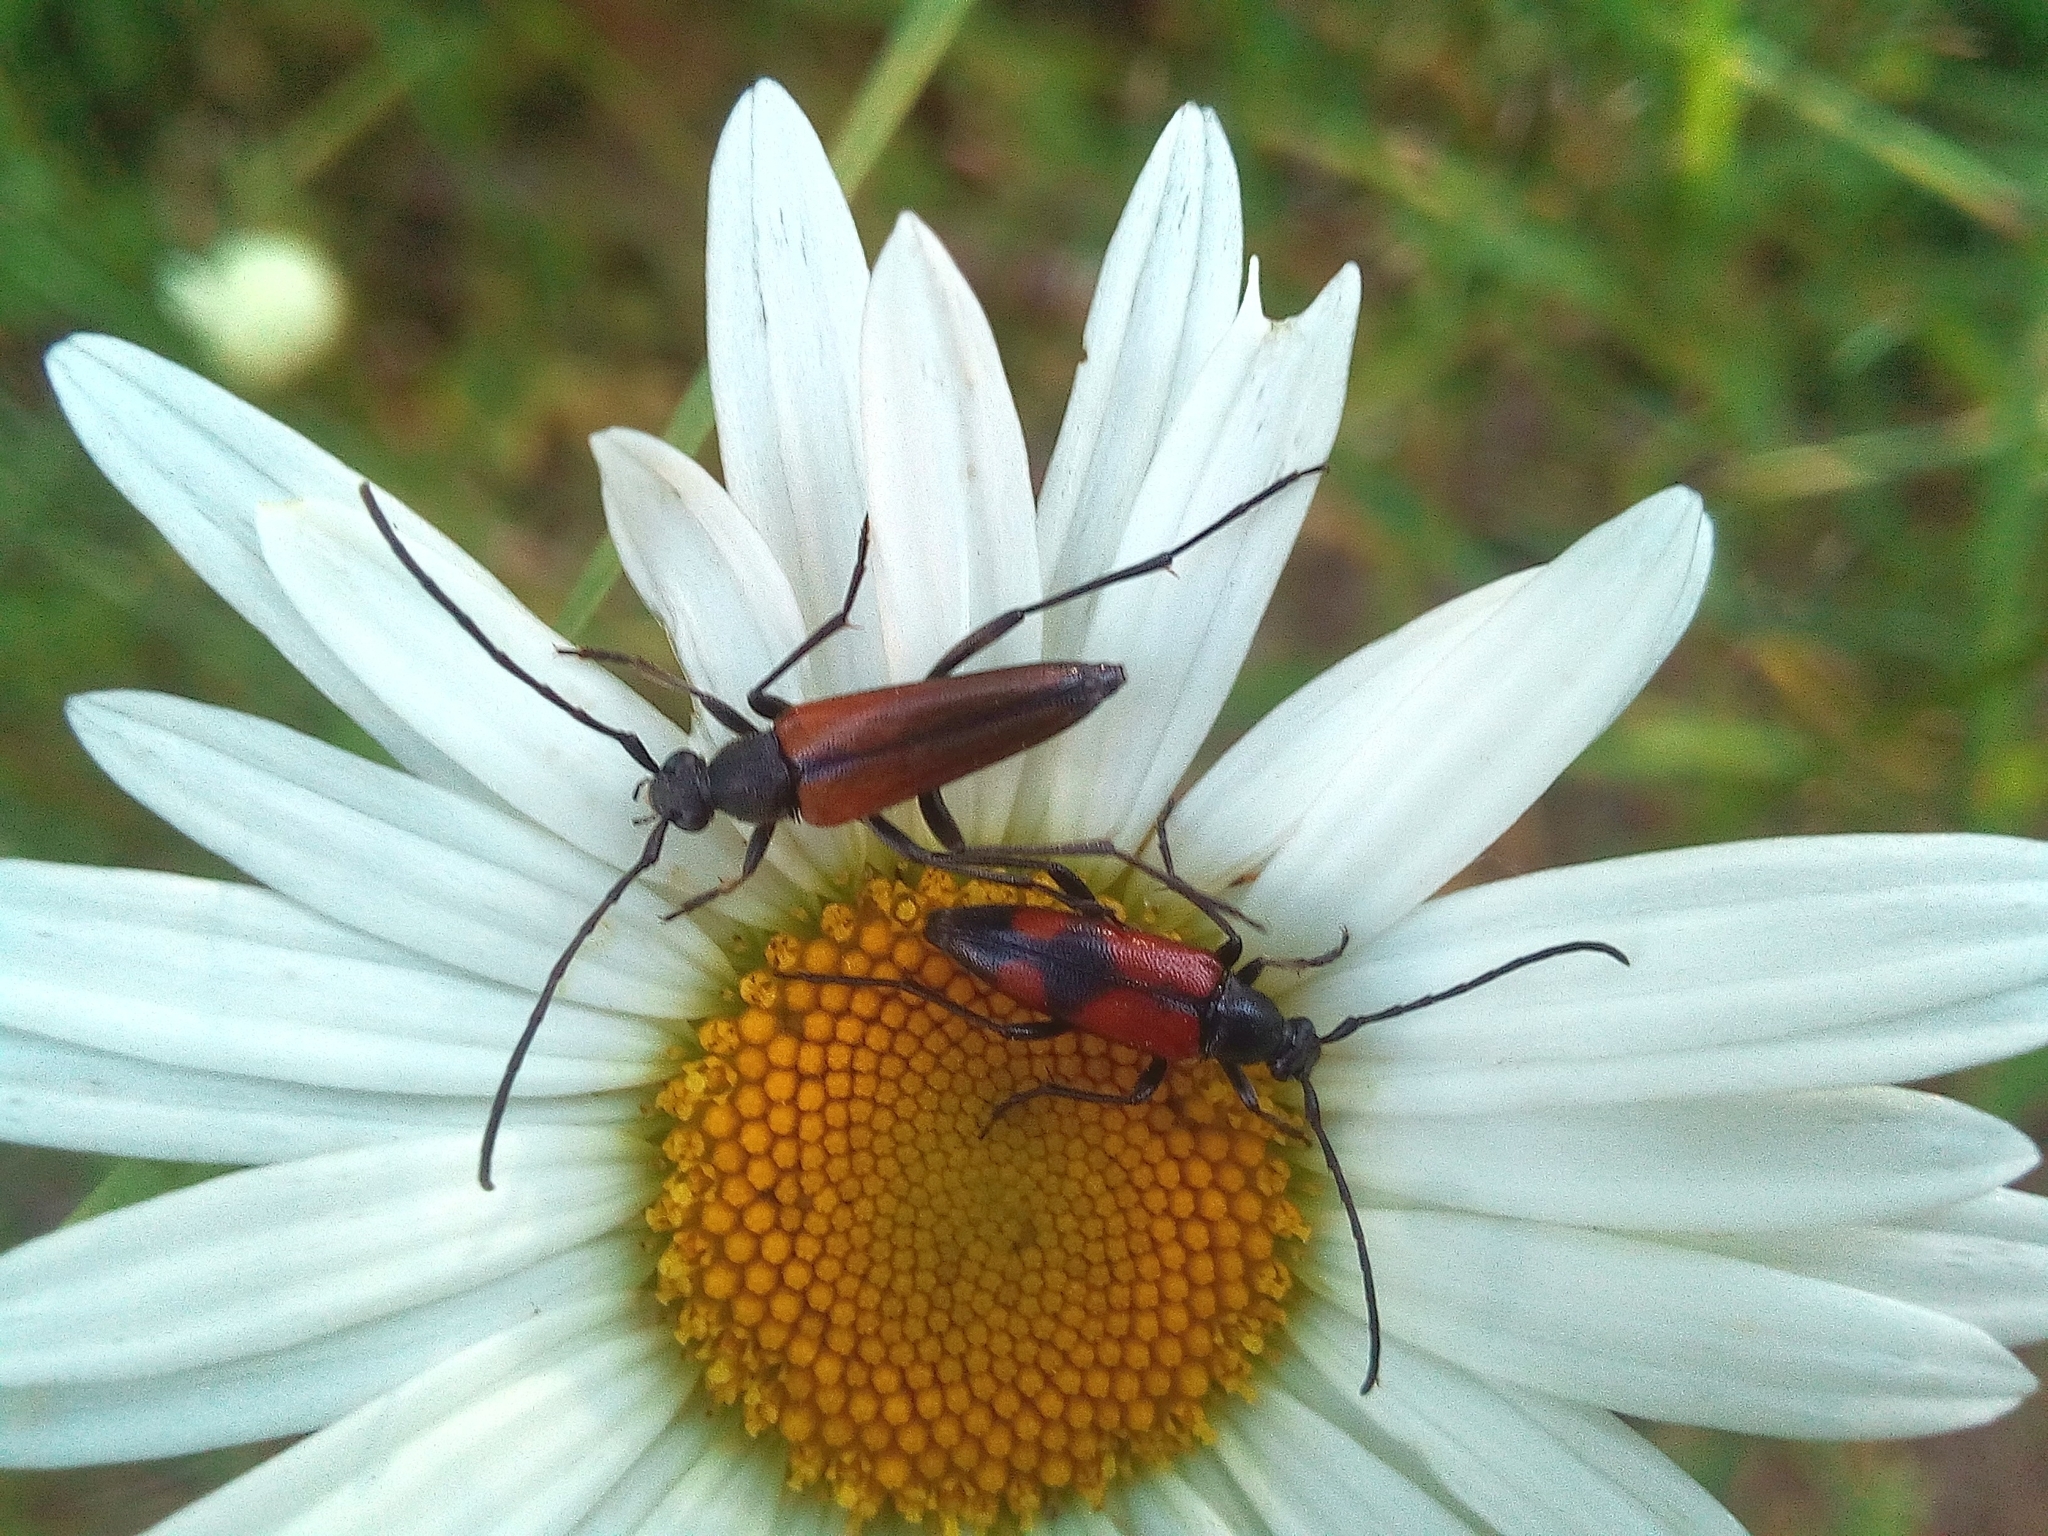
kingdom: Animalia
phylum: Arthropoda
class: Insecta
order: Coleoptera
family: Cerambycidae
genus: Stenurella
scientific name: Stenurella bifasciata
